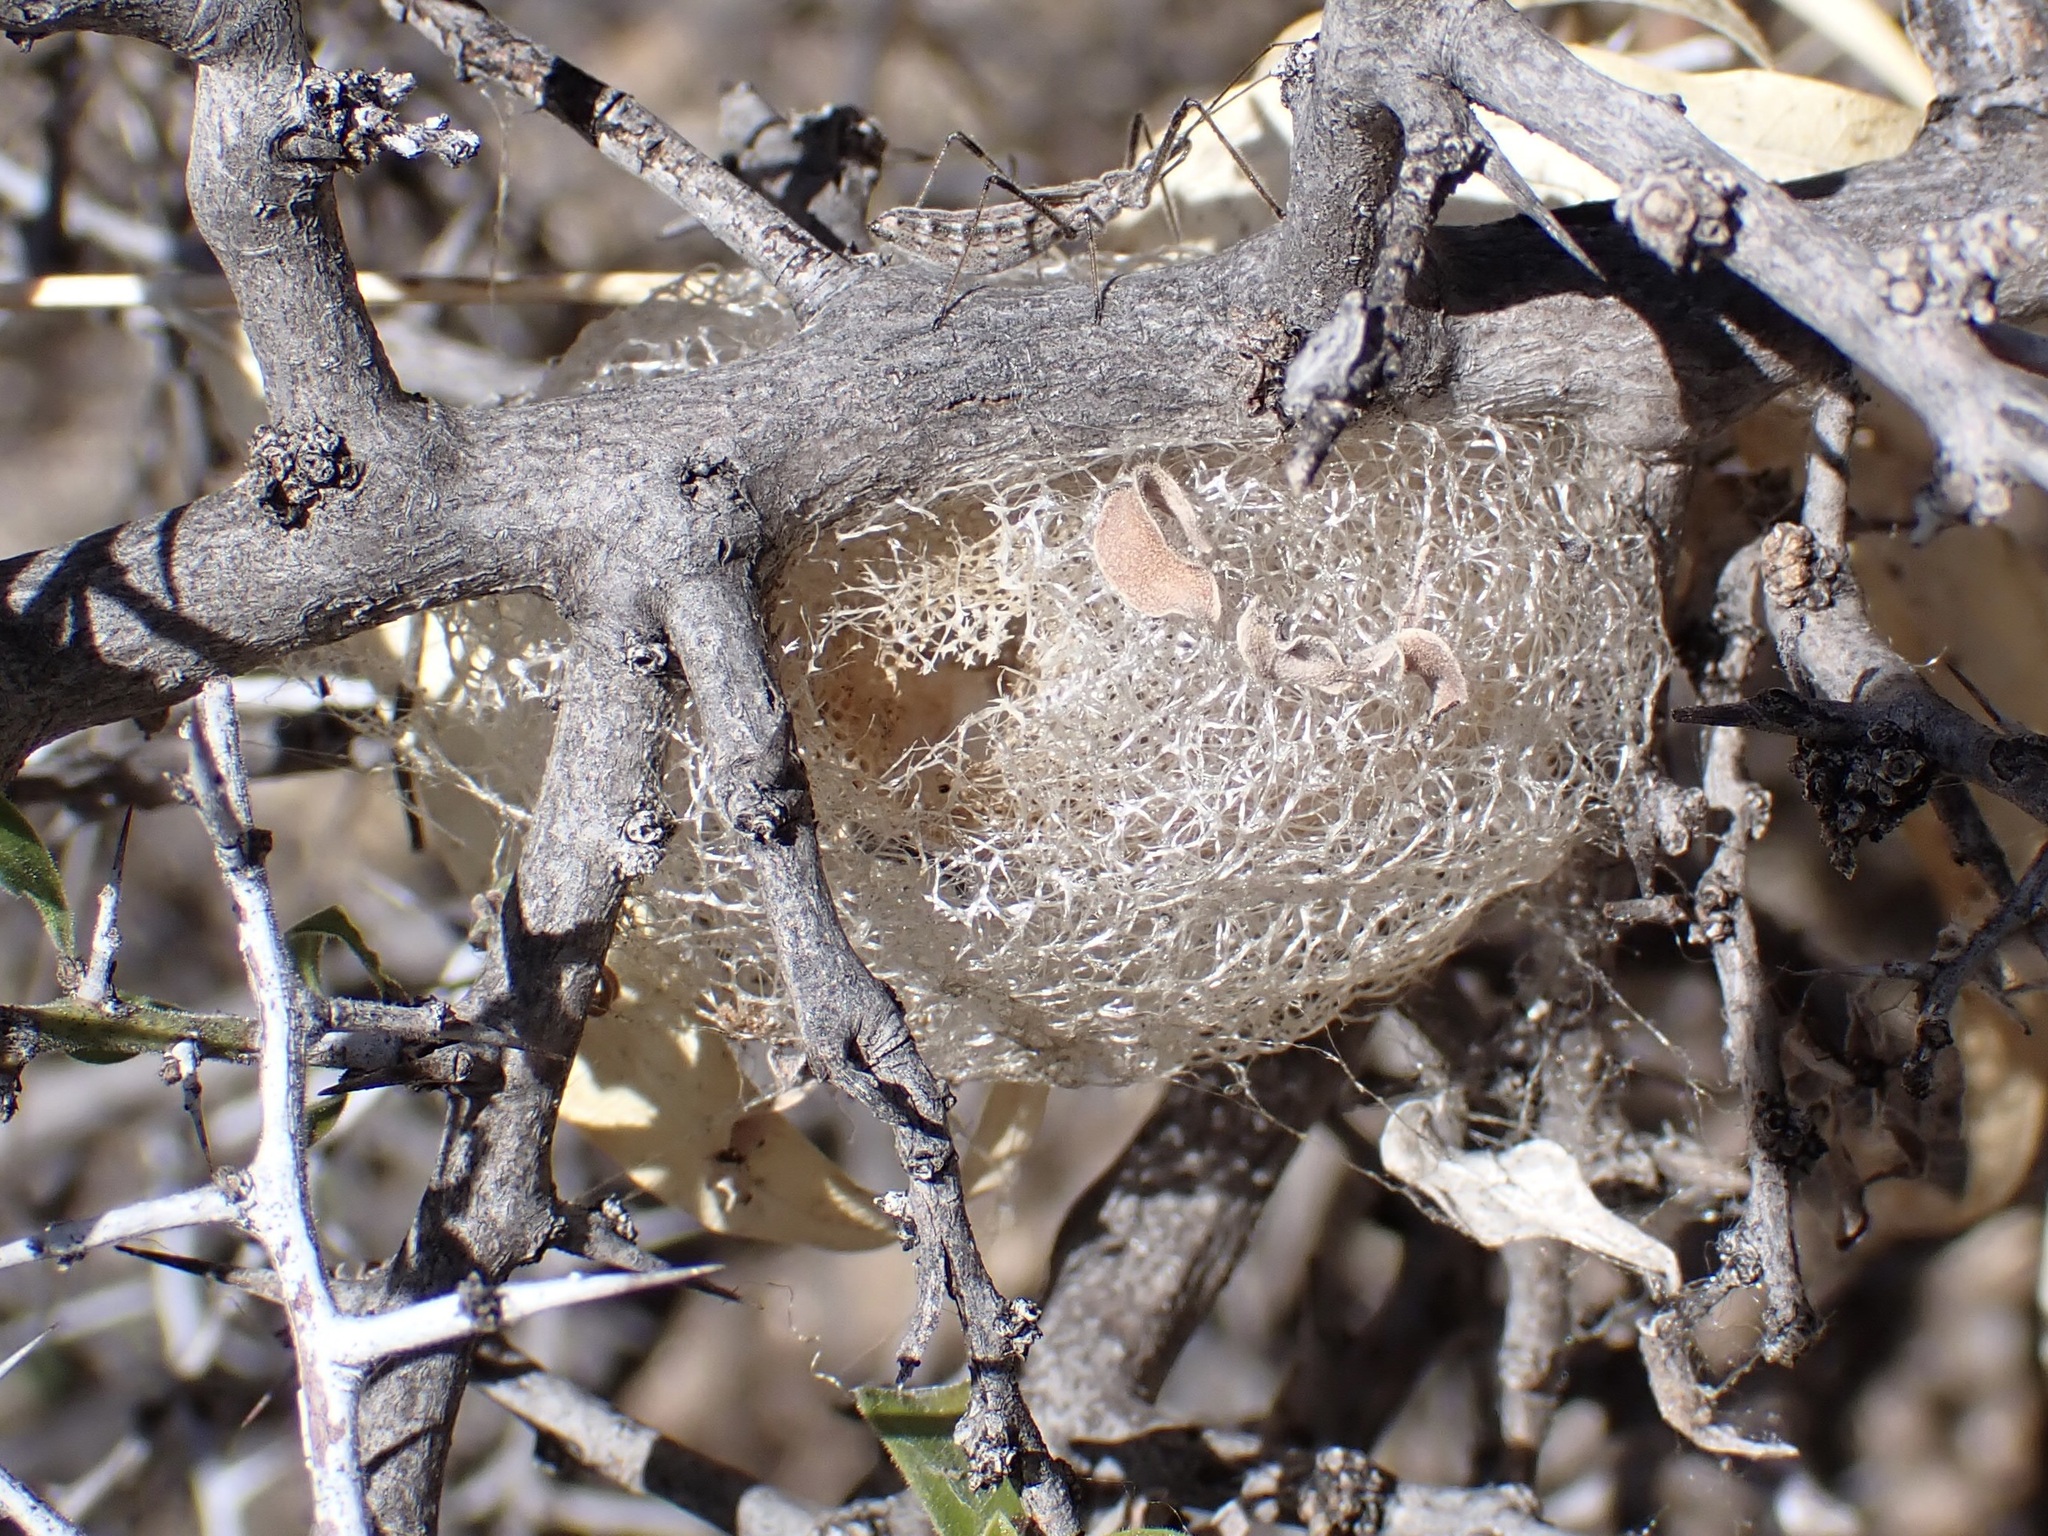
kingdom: Animalia
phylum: Arthropoda
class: Insecta
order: Lepidoptera
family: Saturniidae
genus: Saturnia
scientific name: Saturnia anona
